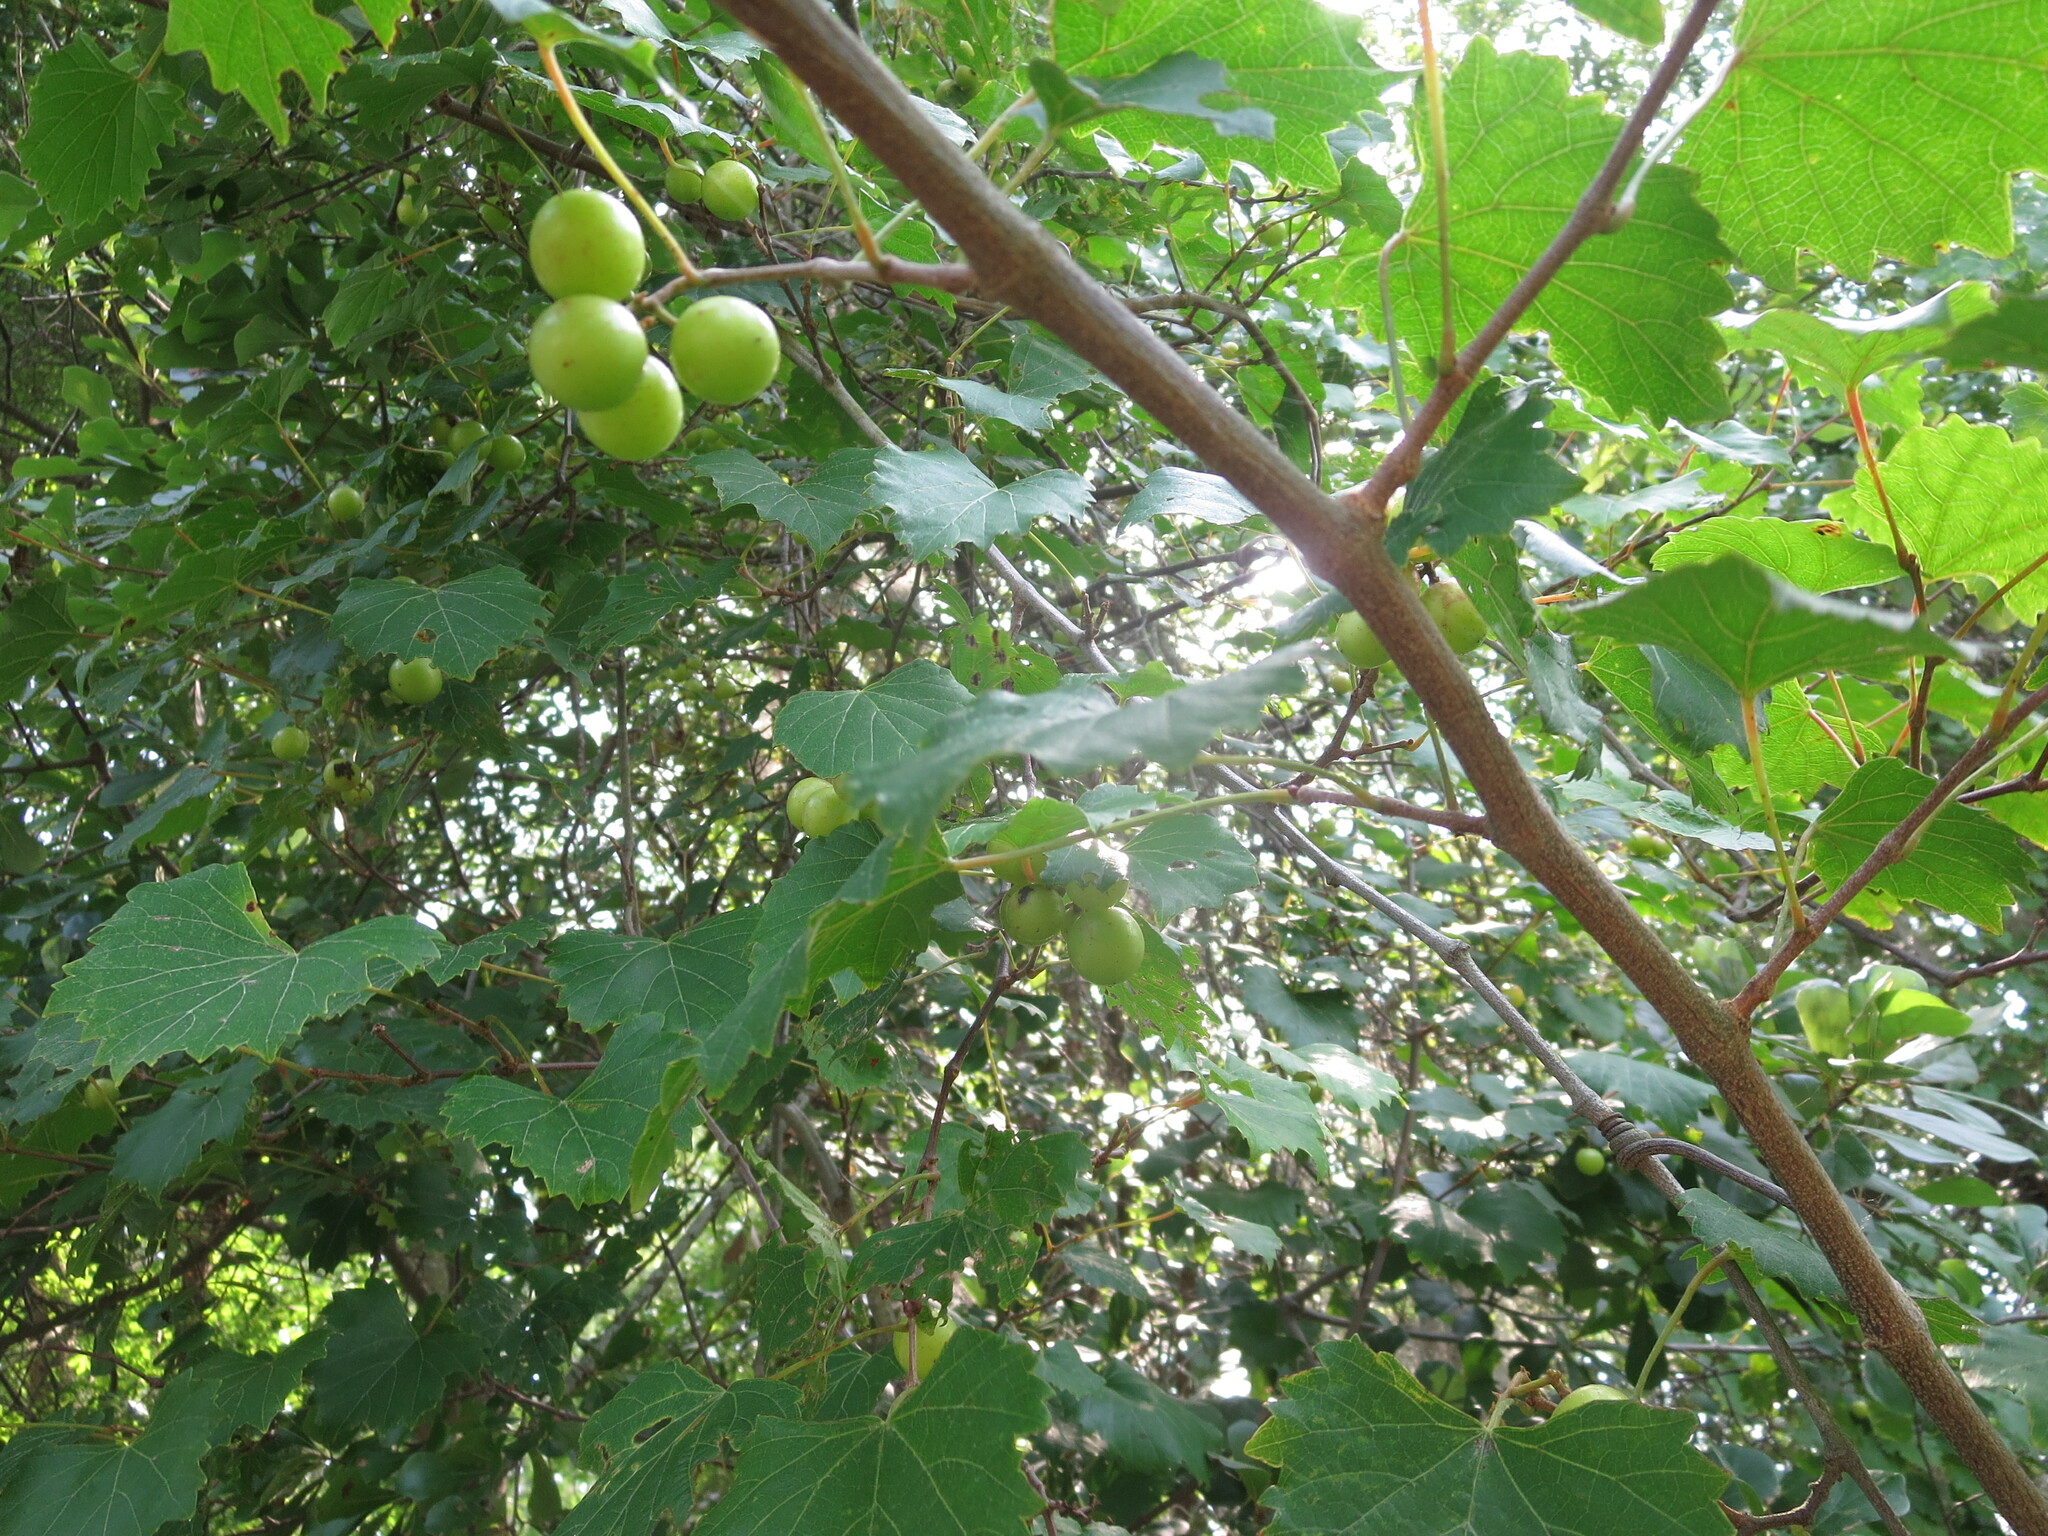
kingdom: Plantae
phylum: Tracheophyta
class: Magnoliopsida
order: Vitales
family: Vitaceae
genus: Vitis
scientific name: Vitis rotundifolia
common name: Muscadine grape
